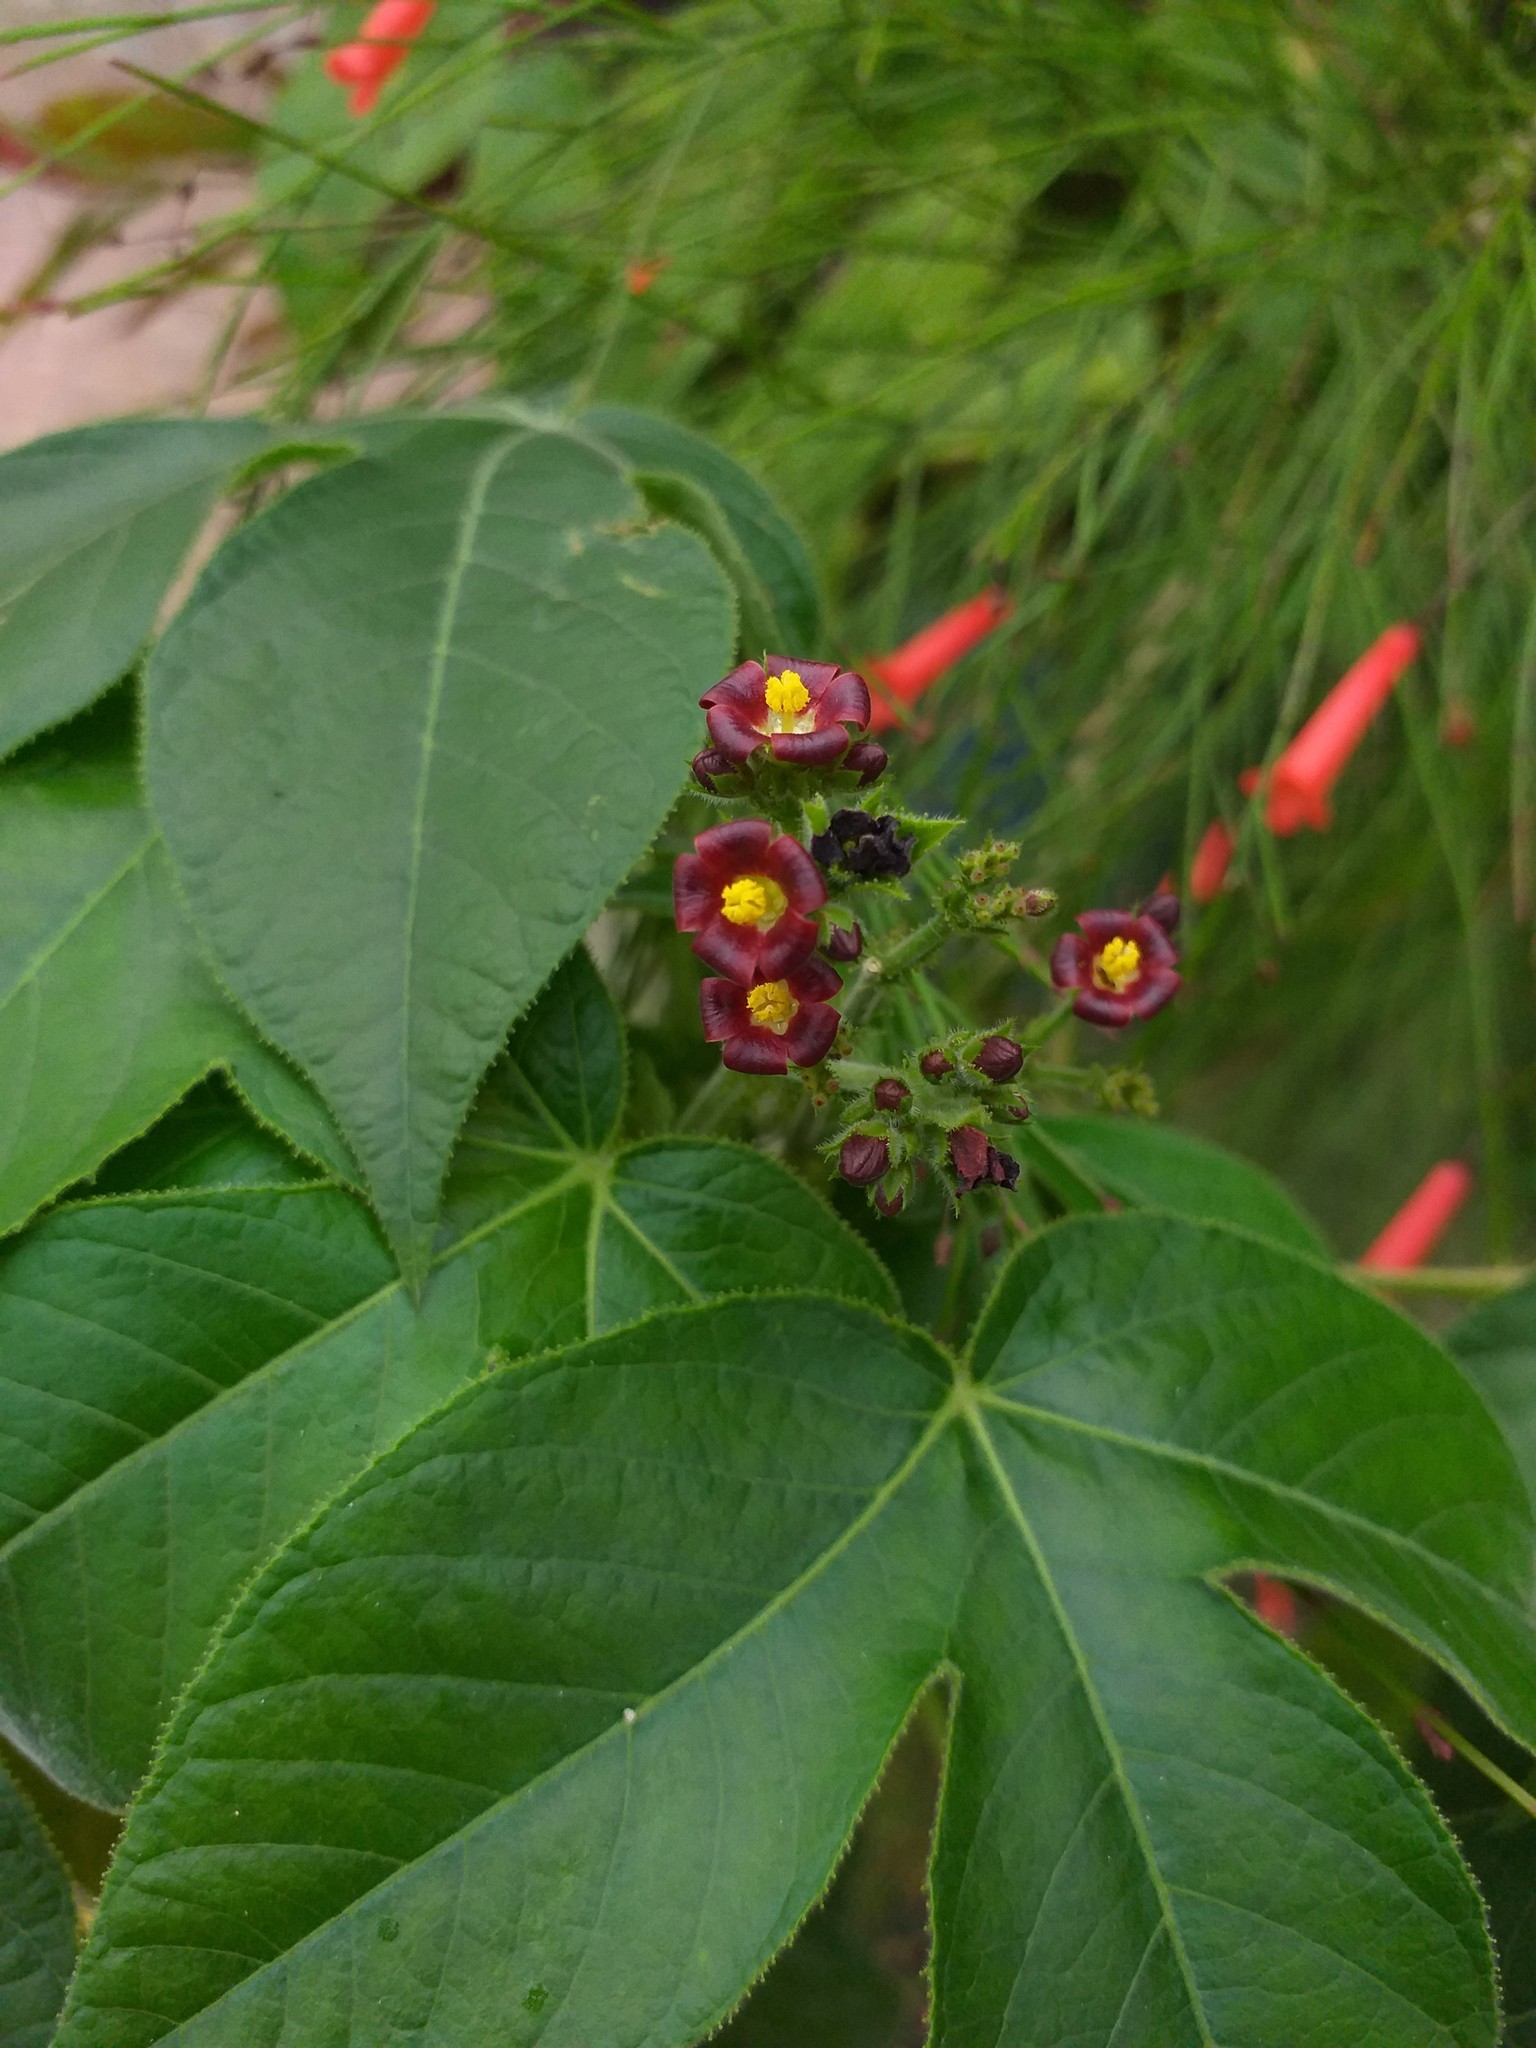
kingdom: Plantae
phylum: Tracheophyta
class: Magnoliopsida
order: Malpighiales
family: Euphorbiaceae
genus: Jatropha
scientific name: Jatropha gossypiifolia
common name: Bellyache bush
